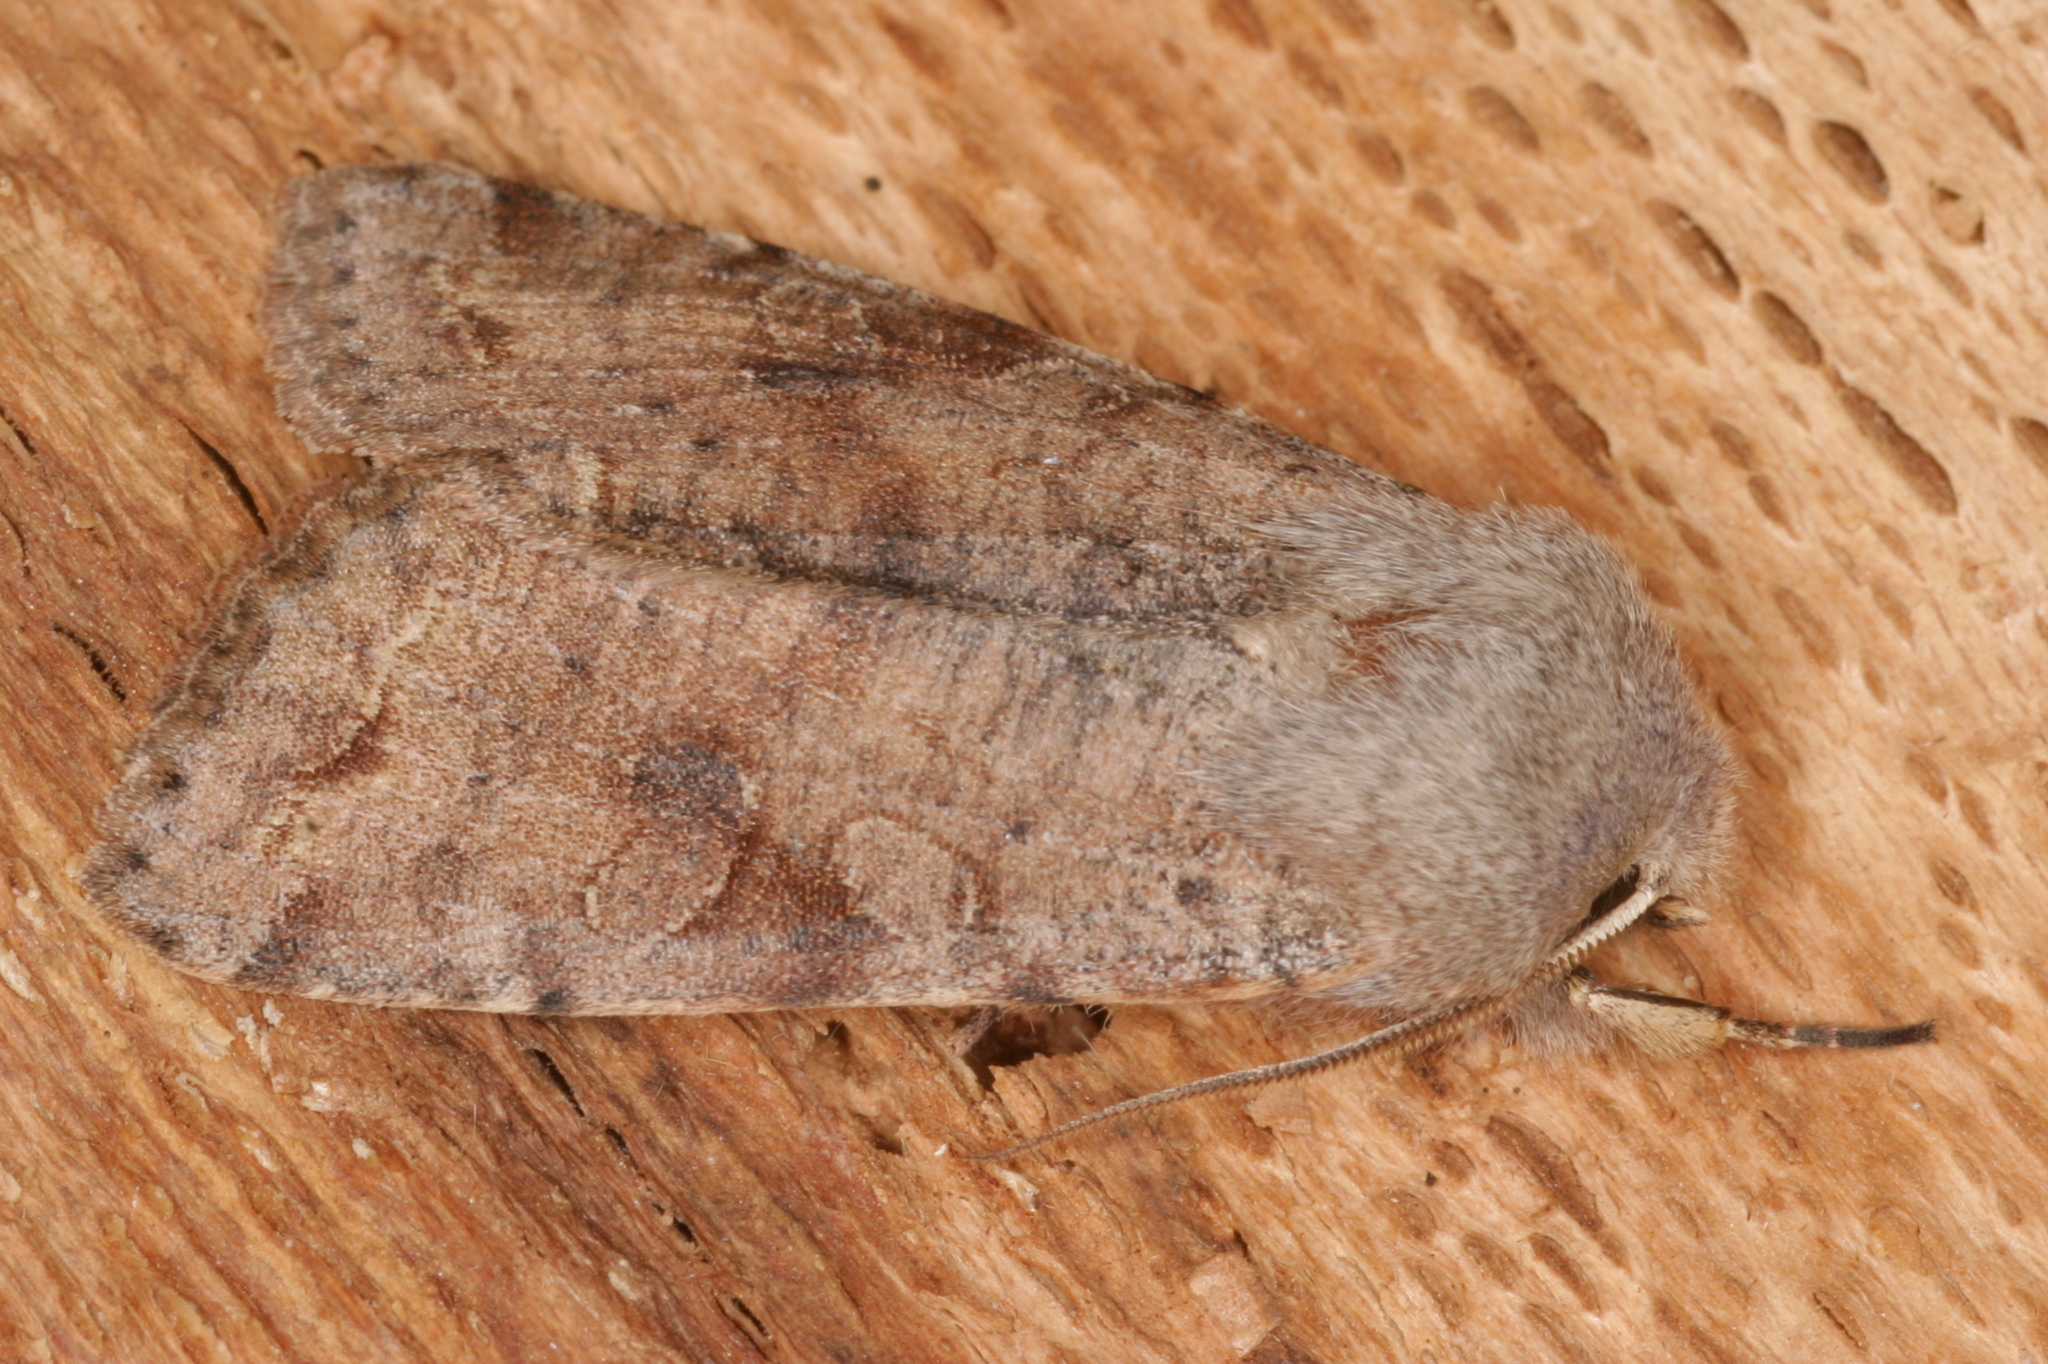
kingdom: Animalia
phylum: Arthropoda
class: Insecta
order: Lepidoptera
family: Noctuidae
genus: Orthosia
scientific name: Orthosia incerta
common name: Clouded drab
